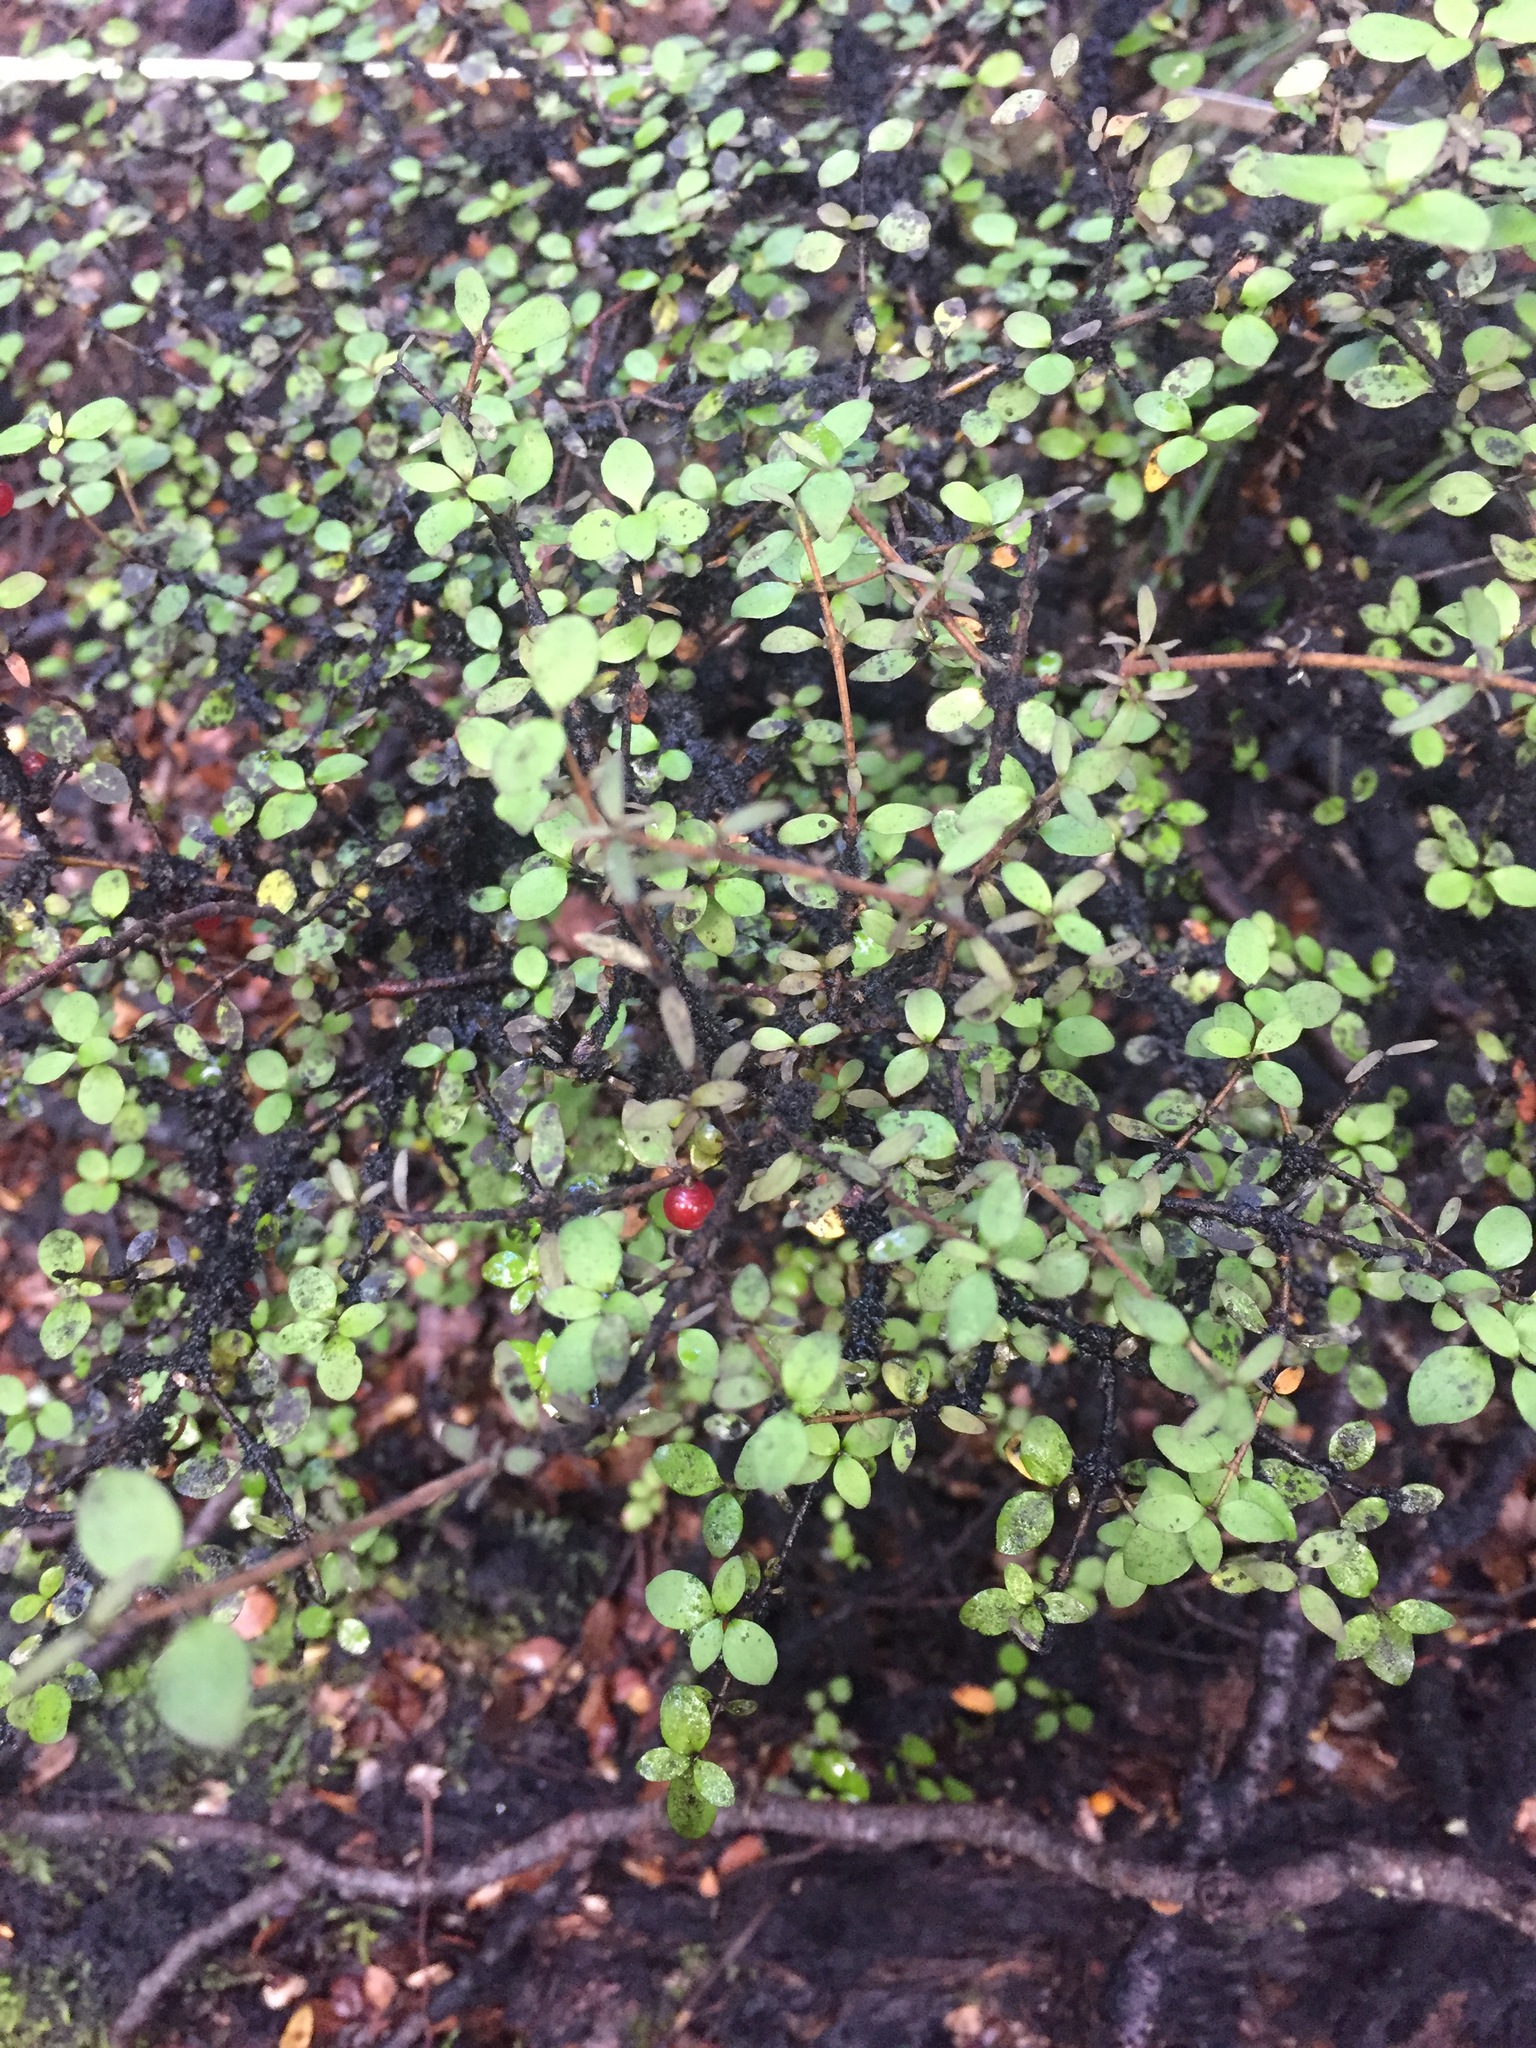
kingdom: Plantae
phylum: Tracheophyta
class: Magnoliopsida
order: Gentianales
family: Rubiaceae
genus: Coprosma
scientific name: Coprosma rhamnoides
